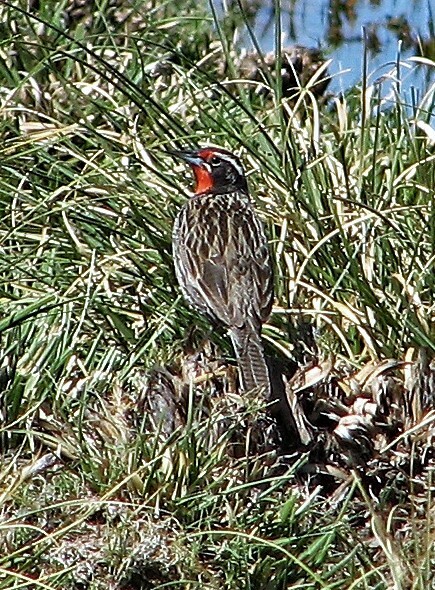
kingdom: Animalia
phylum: Chordata
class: Aves
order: Passeriformes
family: Icteridae
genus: Sturnella
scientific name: Sturnella loyca
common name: Long-tailed meadowlark
